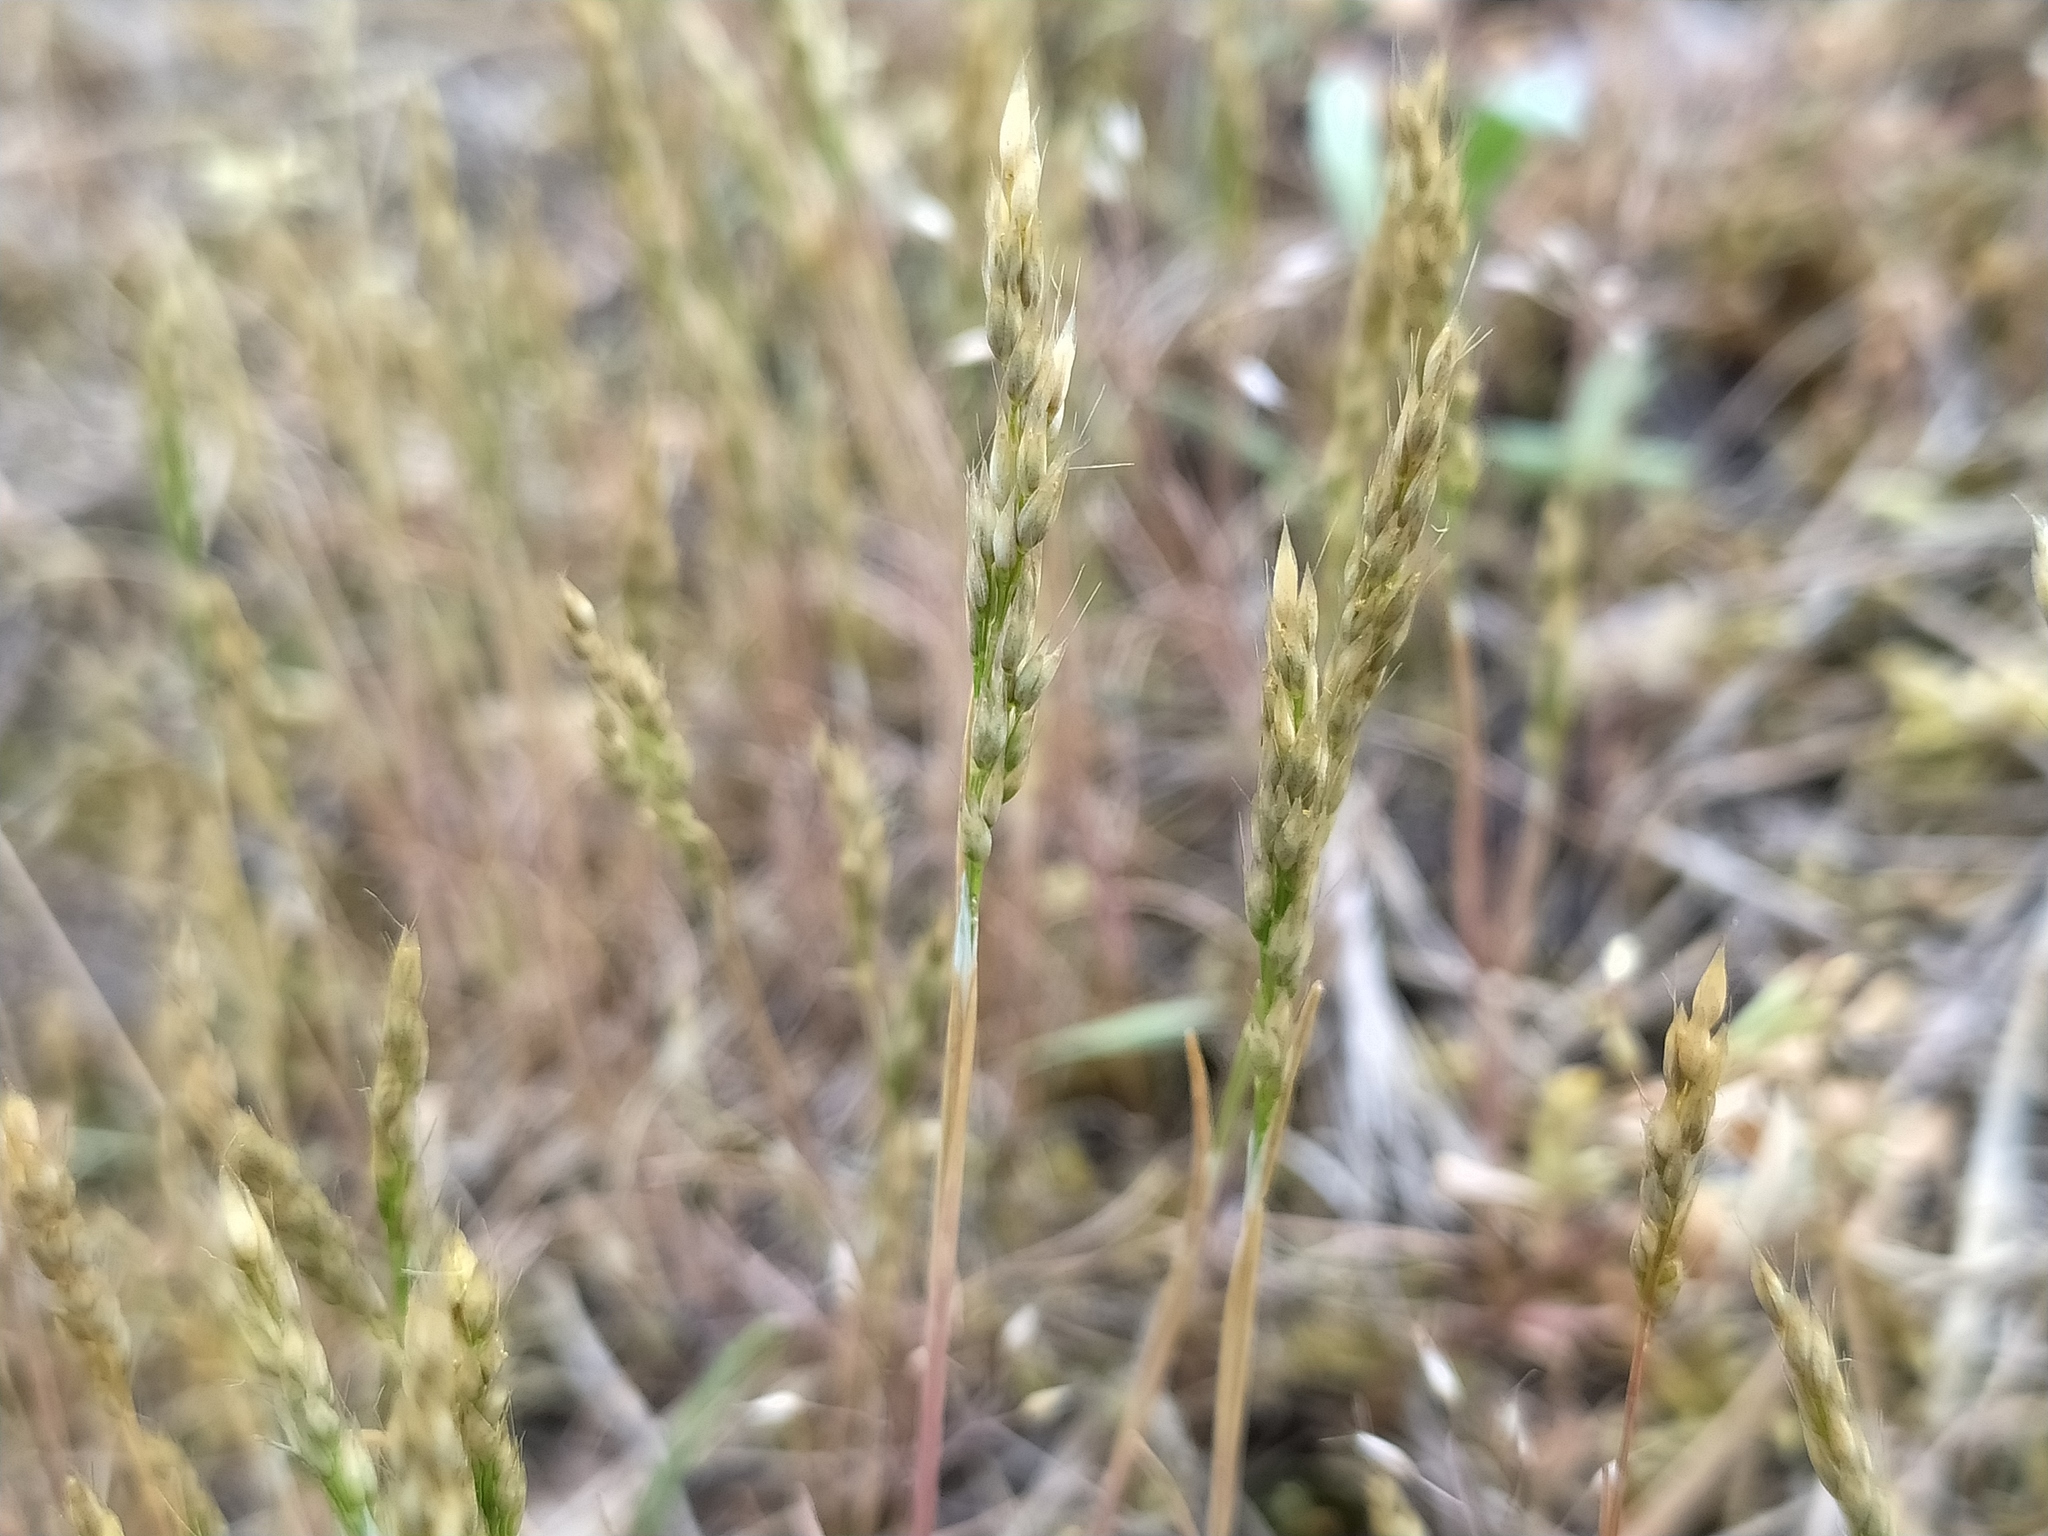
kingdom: Plantae
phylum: Tracheophyta
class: Liliopsida
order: Poales
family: Poaceae
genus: Aira
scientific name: Aira praecox
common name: Early hair-grass
